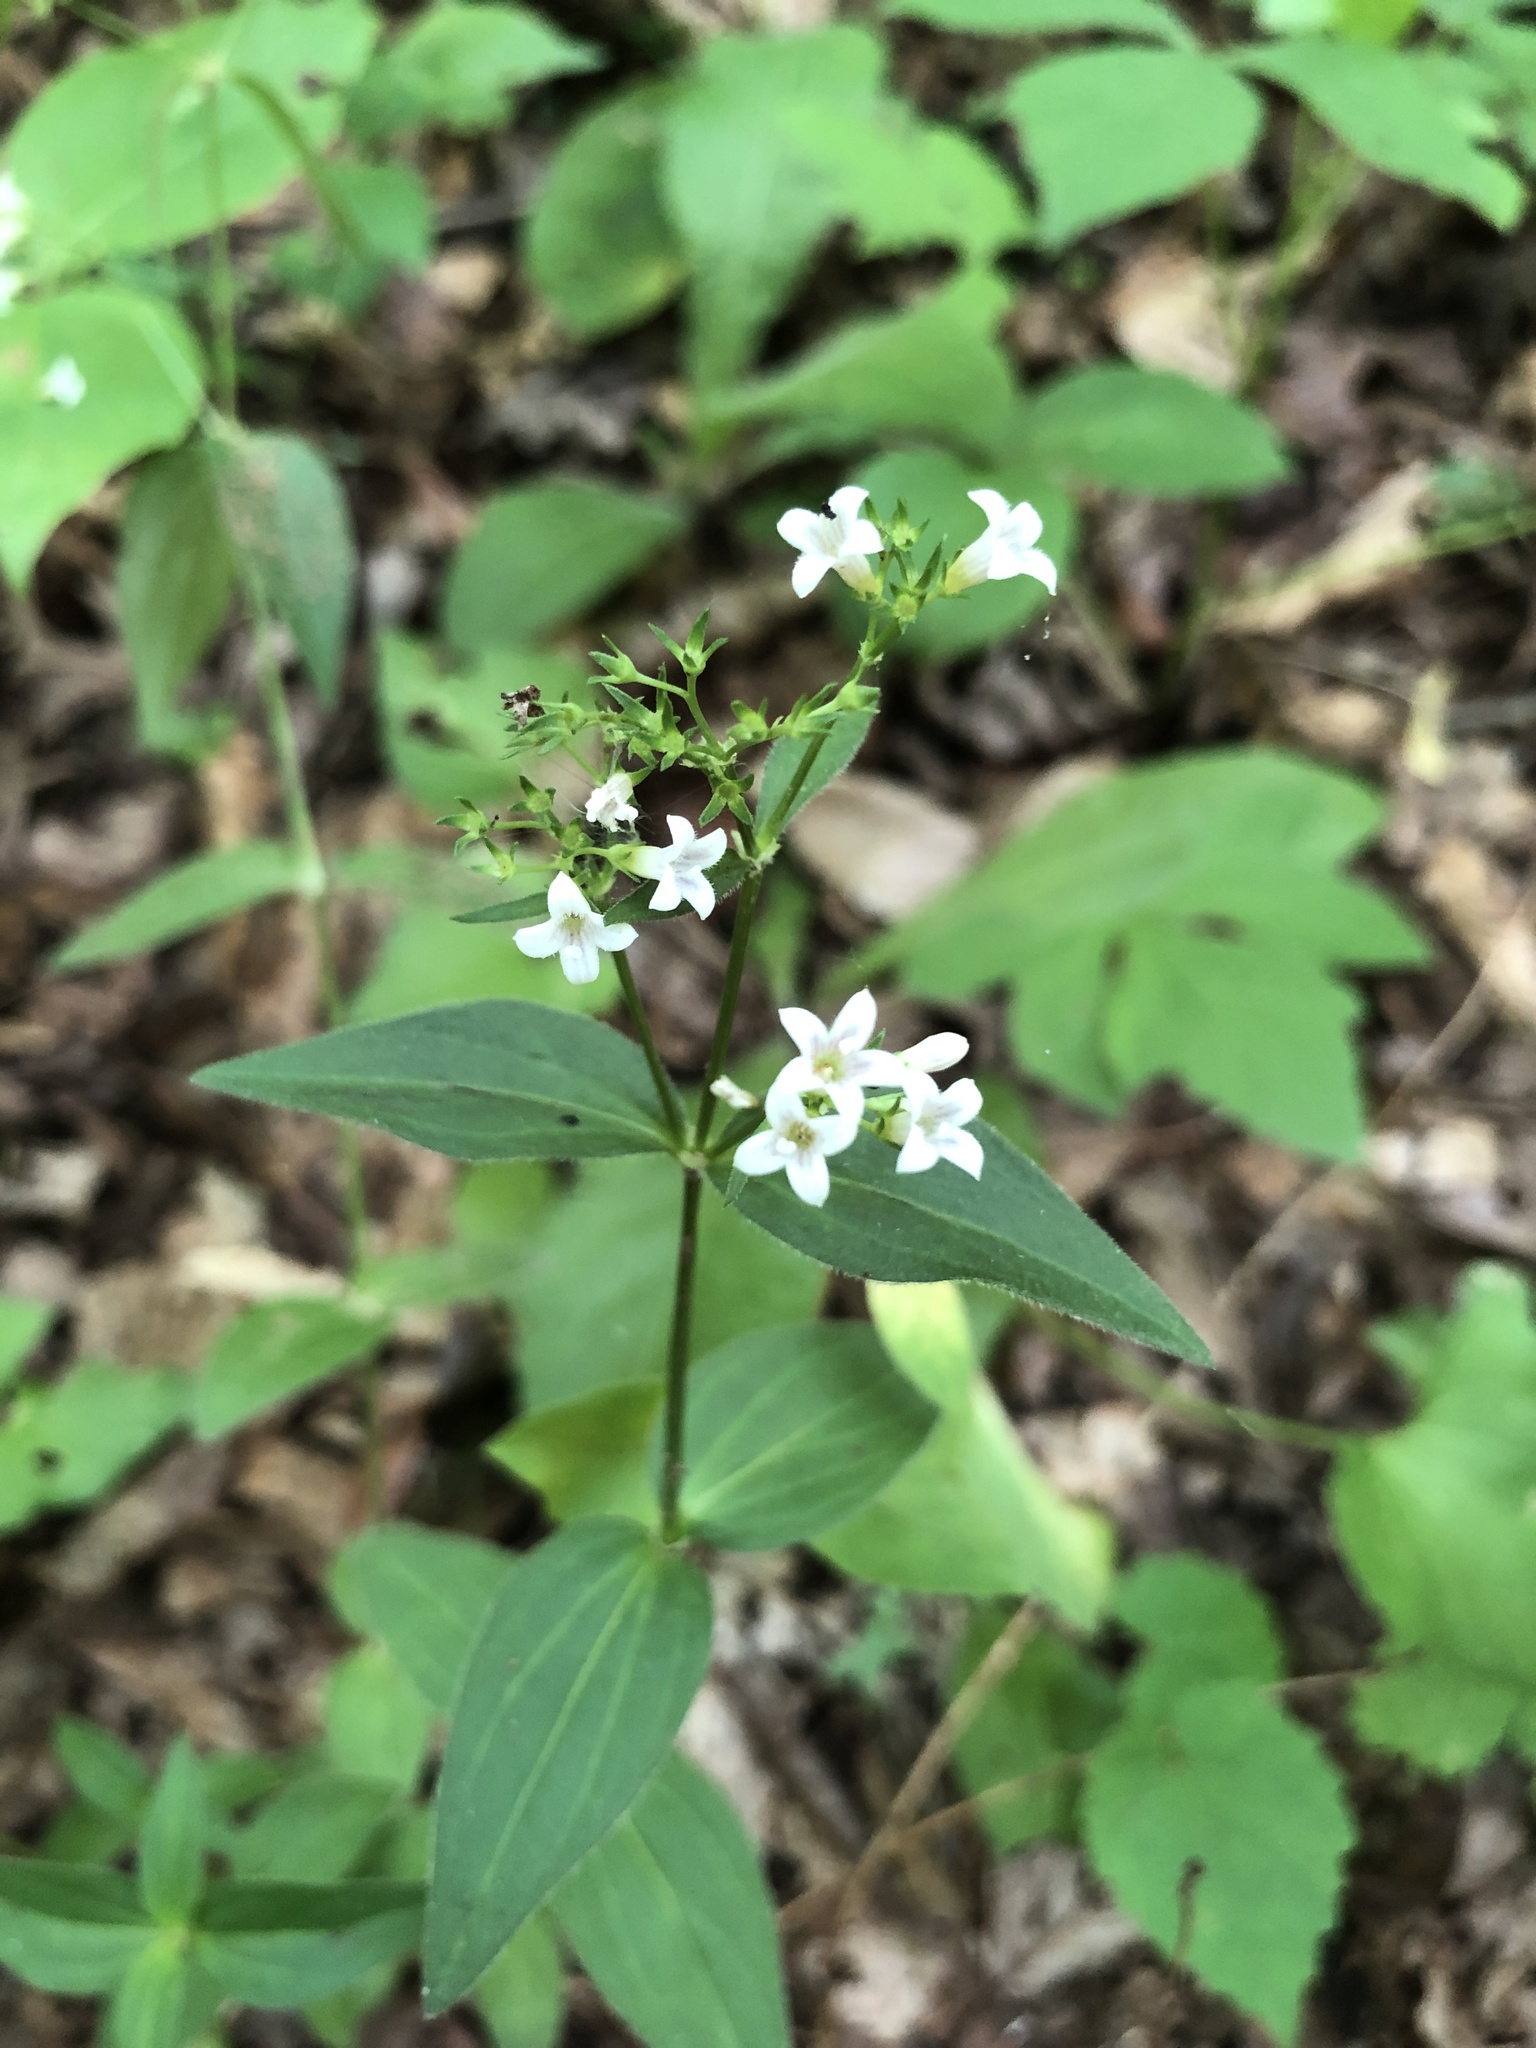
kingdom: Plantae
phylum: Tracheophyta
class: Magnoliopsida
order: Gentianales
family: Rubiaceae
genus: Houstonia
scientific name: Houstonia purpurea
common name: Summer bluet
